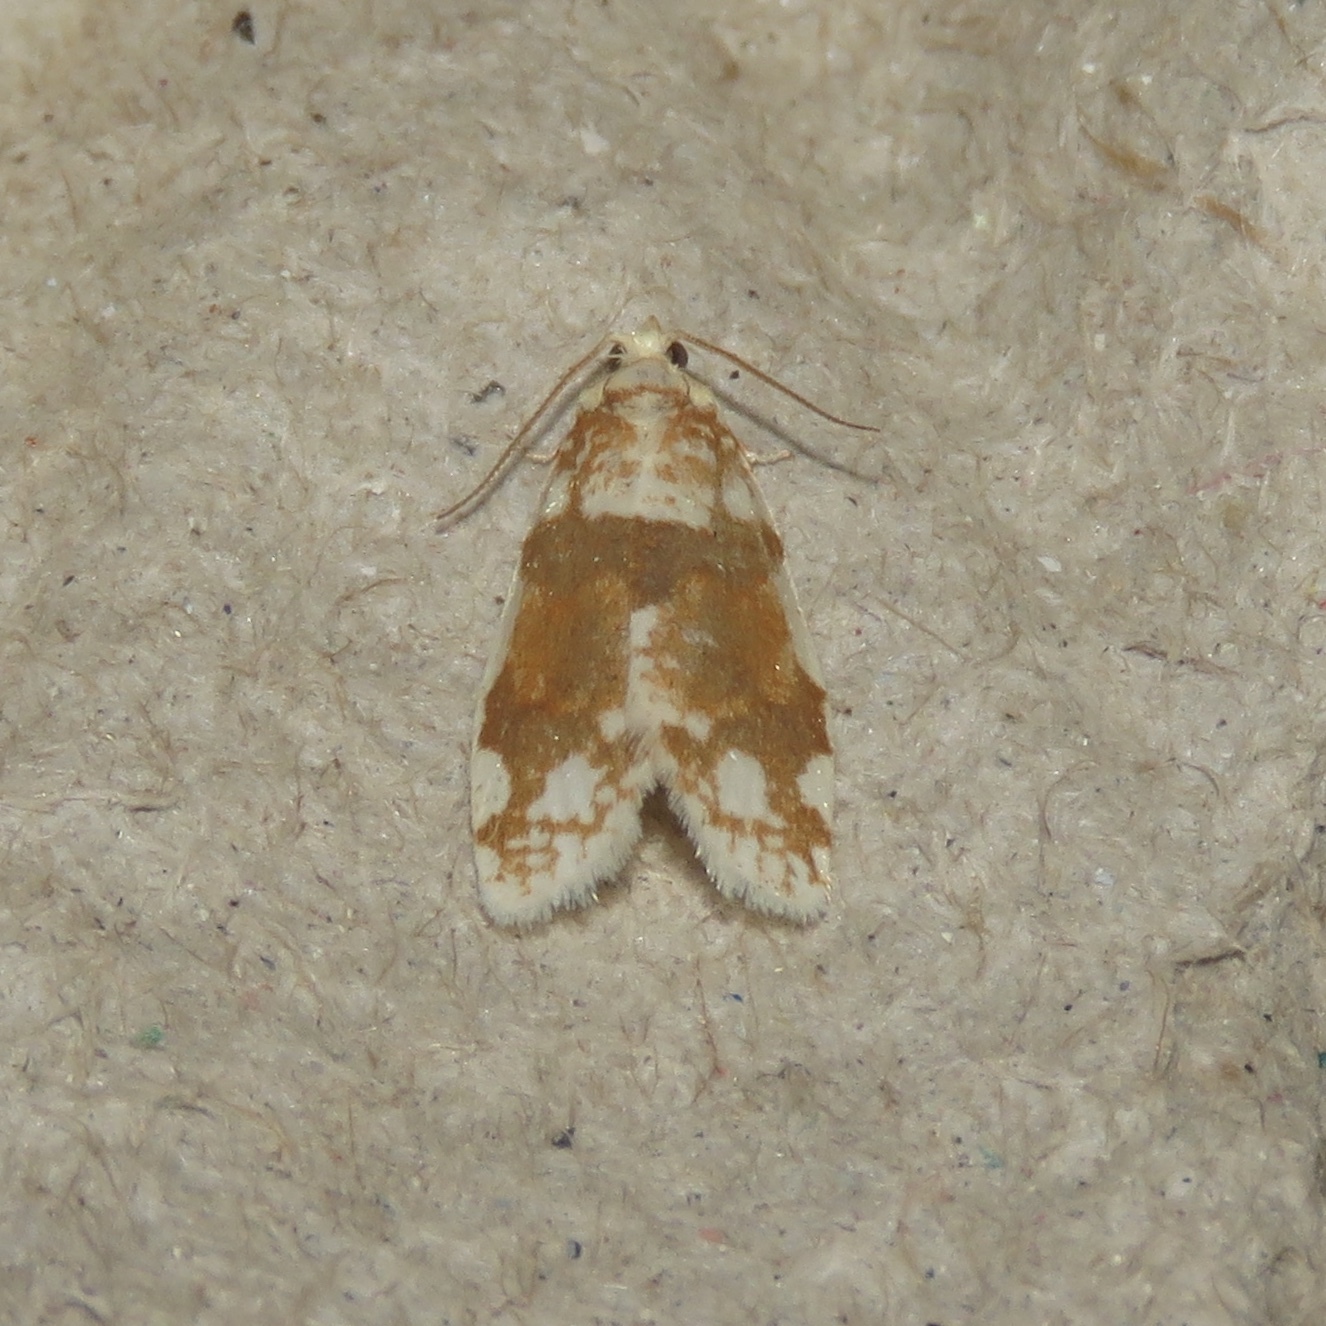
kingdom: Animalia
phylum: Arthropoda
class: Insecta
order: Lepidoptera
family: Tortricidae
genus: Argyrotaenia
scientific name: Argyrotaenia alisellana
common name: White-spotted leafroller moth
